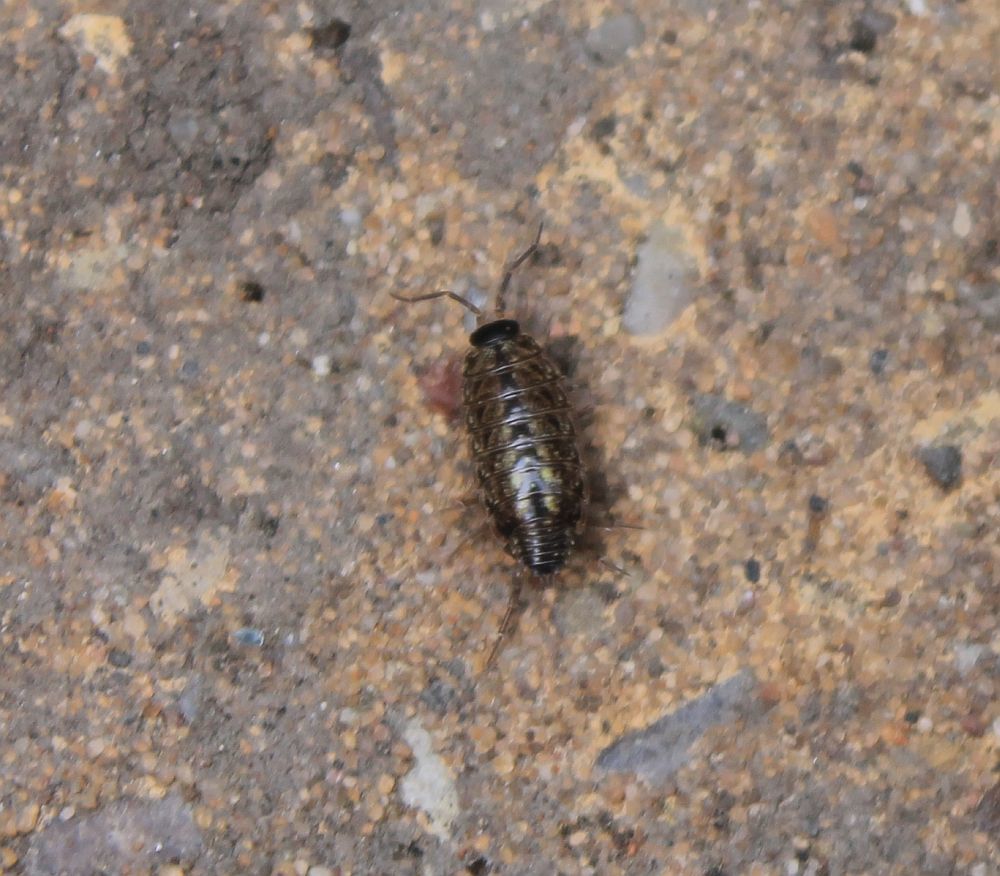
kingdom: Animalia
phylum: Arthropoda
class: Malacostraca
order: Isopoda
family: Philosciidae
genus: Philoscia
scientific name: Philoscia muscorum
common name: Common striped woodlouse
